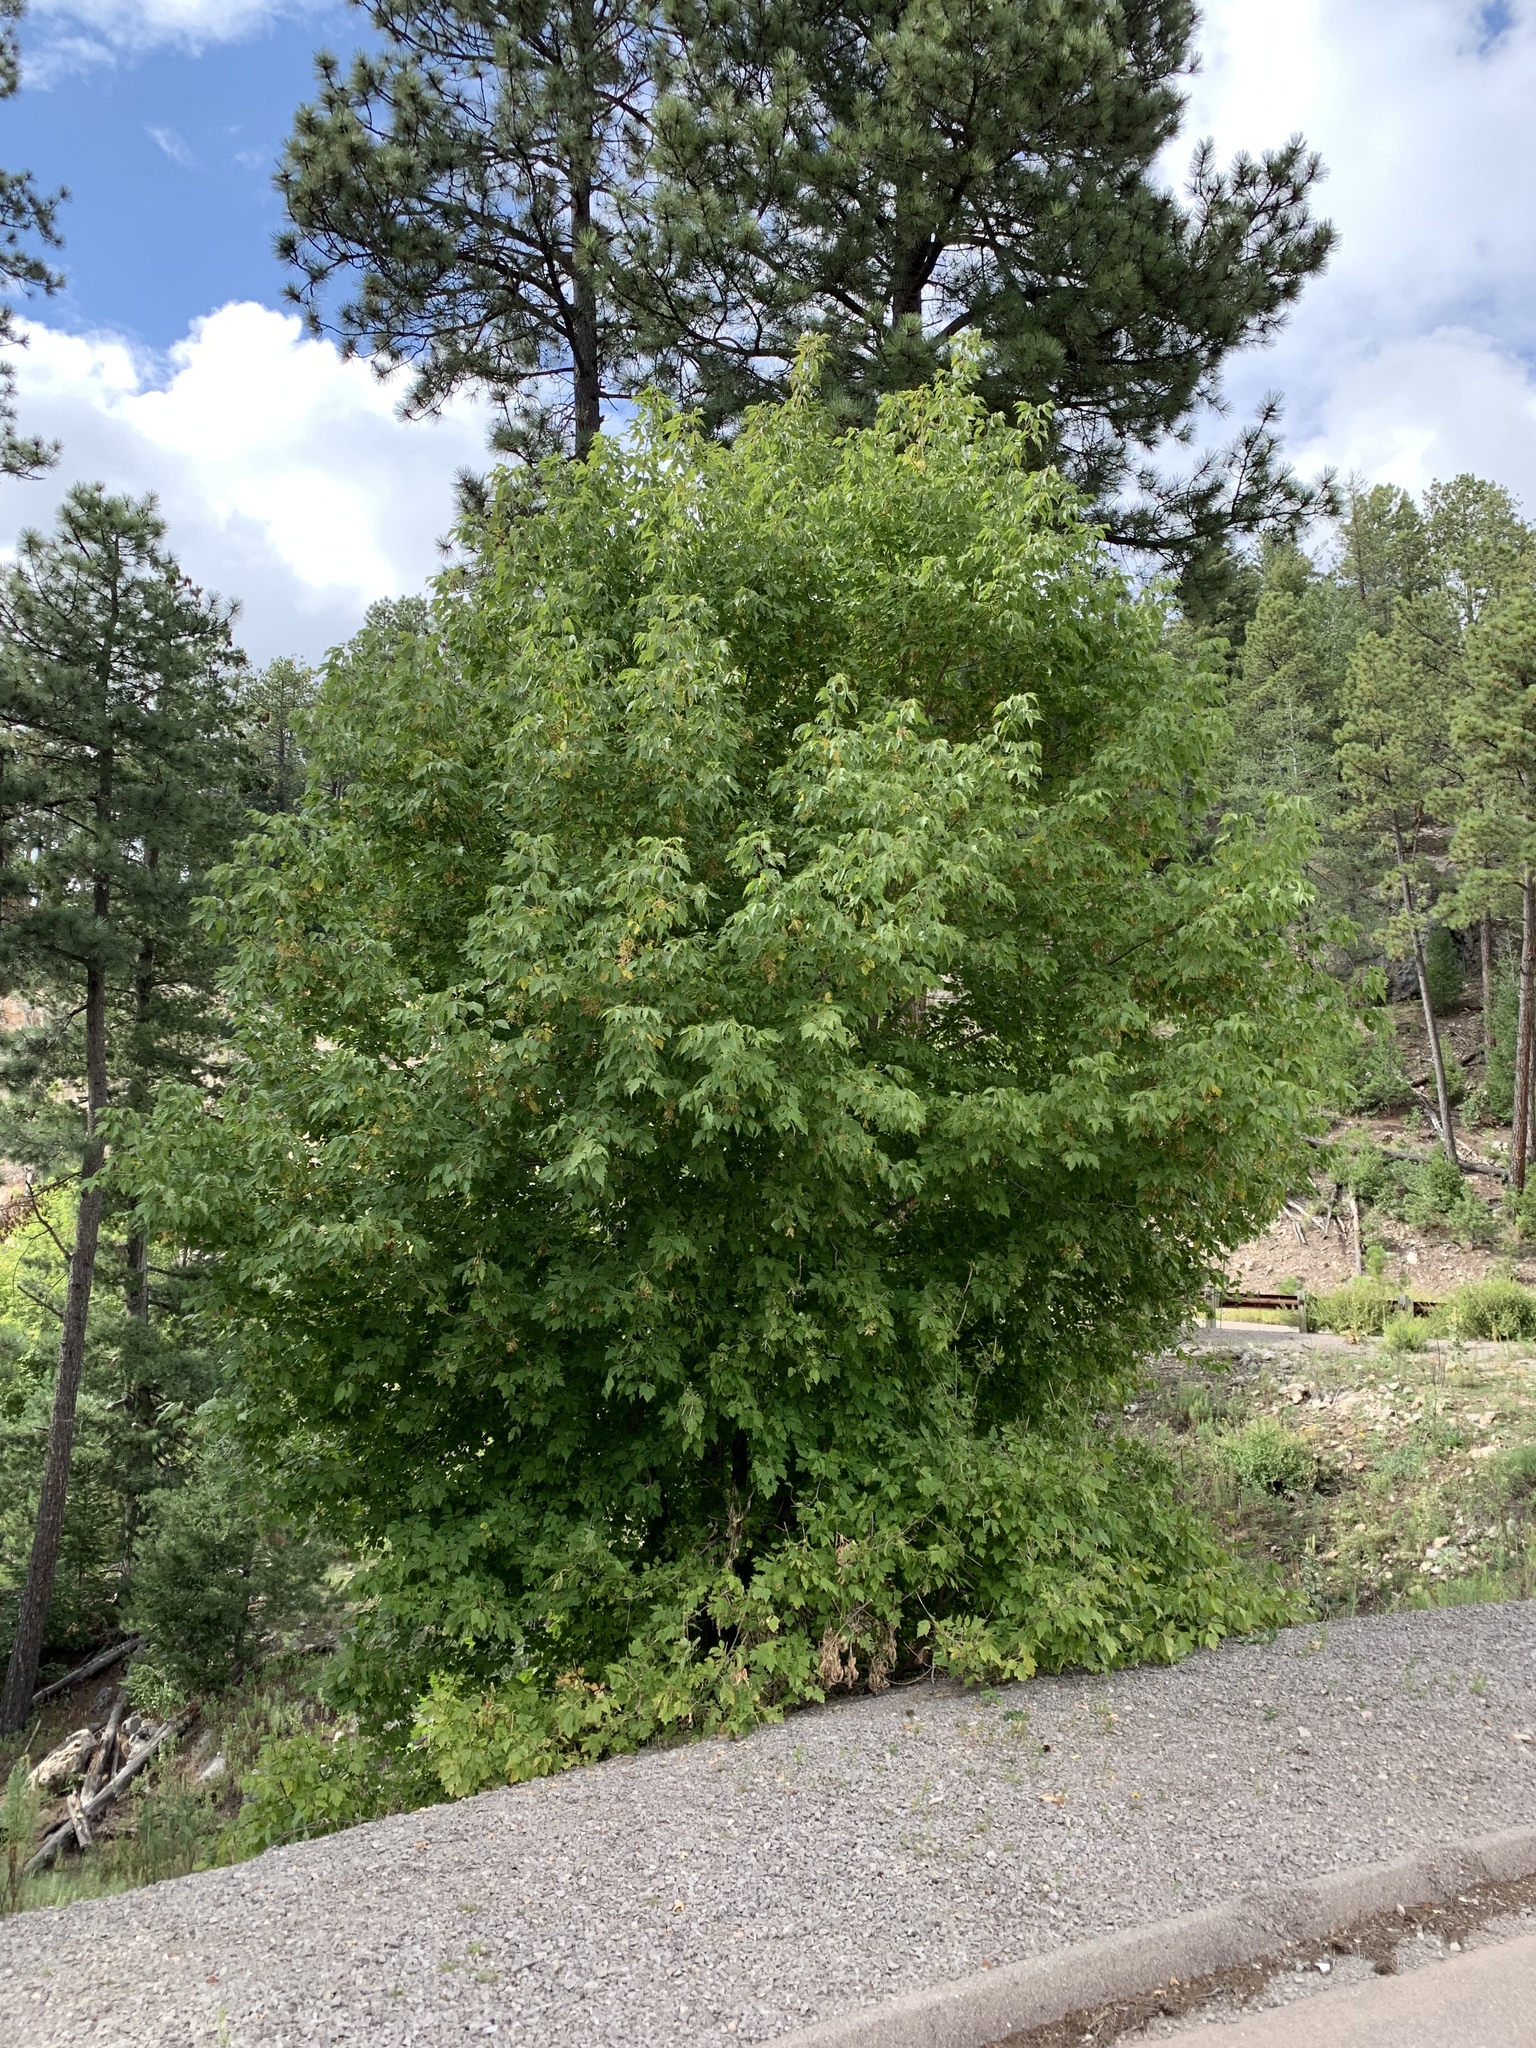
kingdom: Plantae
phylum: Tracheophyta
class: Magnoliopsida
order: Sapindales
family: Sapindaceae
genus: Acer
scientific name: Acer negundo
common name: Ashleaf maple
